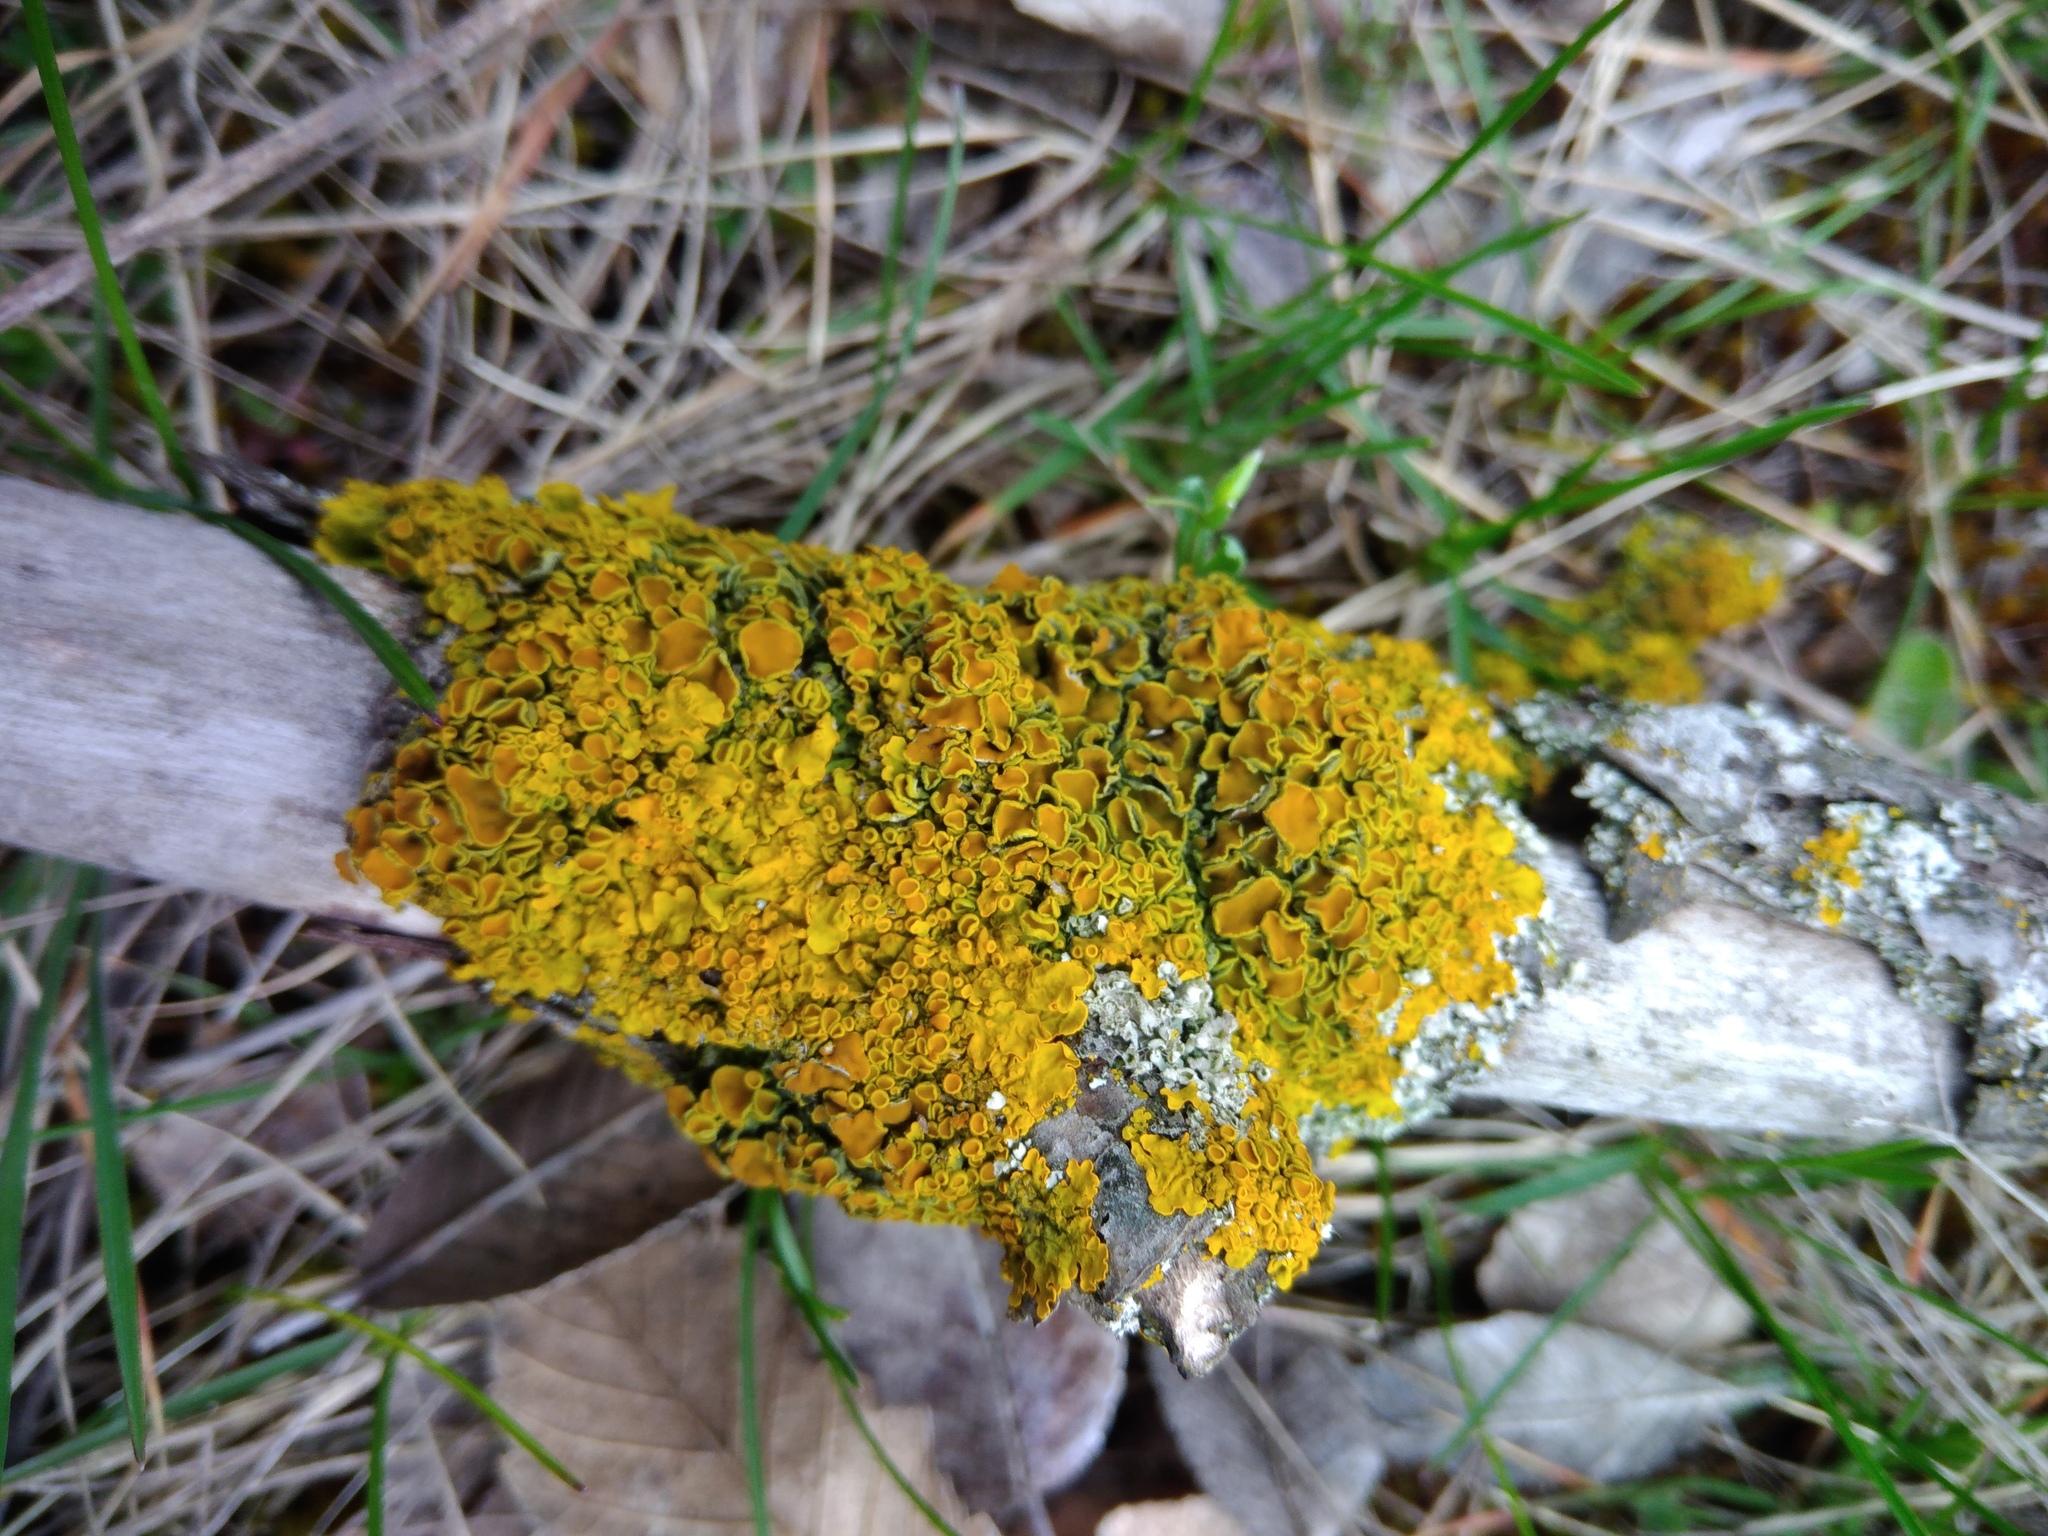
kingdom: Fungi
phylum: Ascomycota
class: Lecanoromycetes
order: Teloschistales
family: Teloschistaceae
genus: Xanthoria
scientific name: Xanthoria parietina
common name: Common orange lichen
